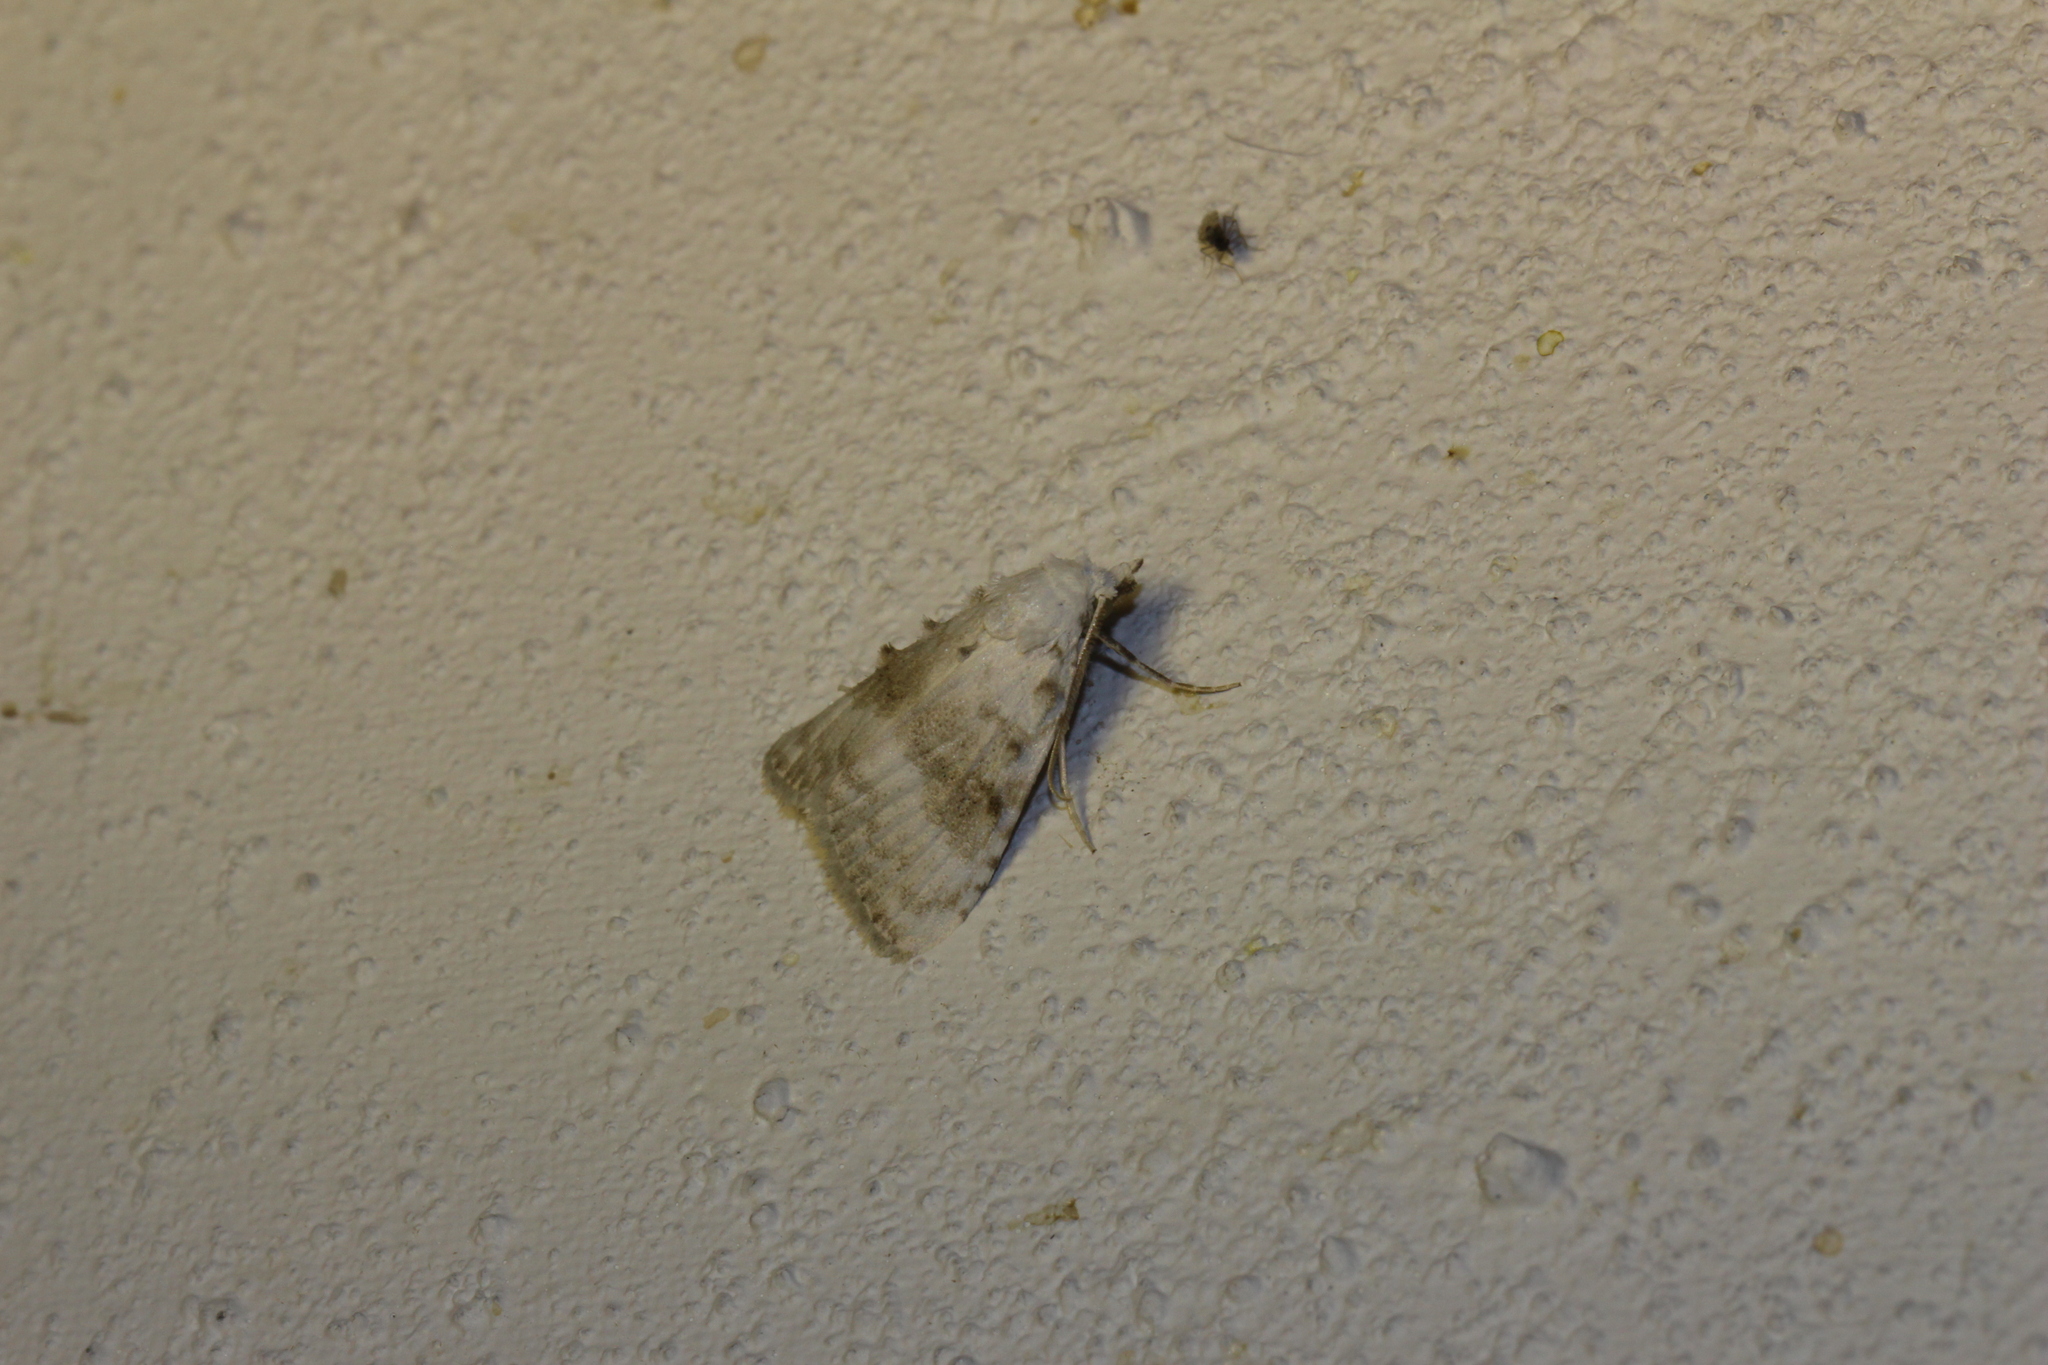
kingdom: Animalia
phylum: Arthropoda
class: Insecta
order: Lepidoptera
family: Nolidae
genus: Meganola
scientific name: Meganola albula
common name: Kent black arches
